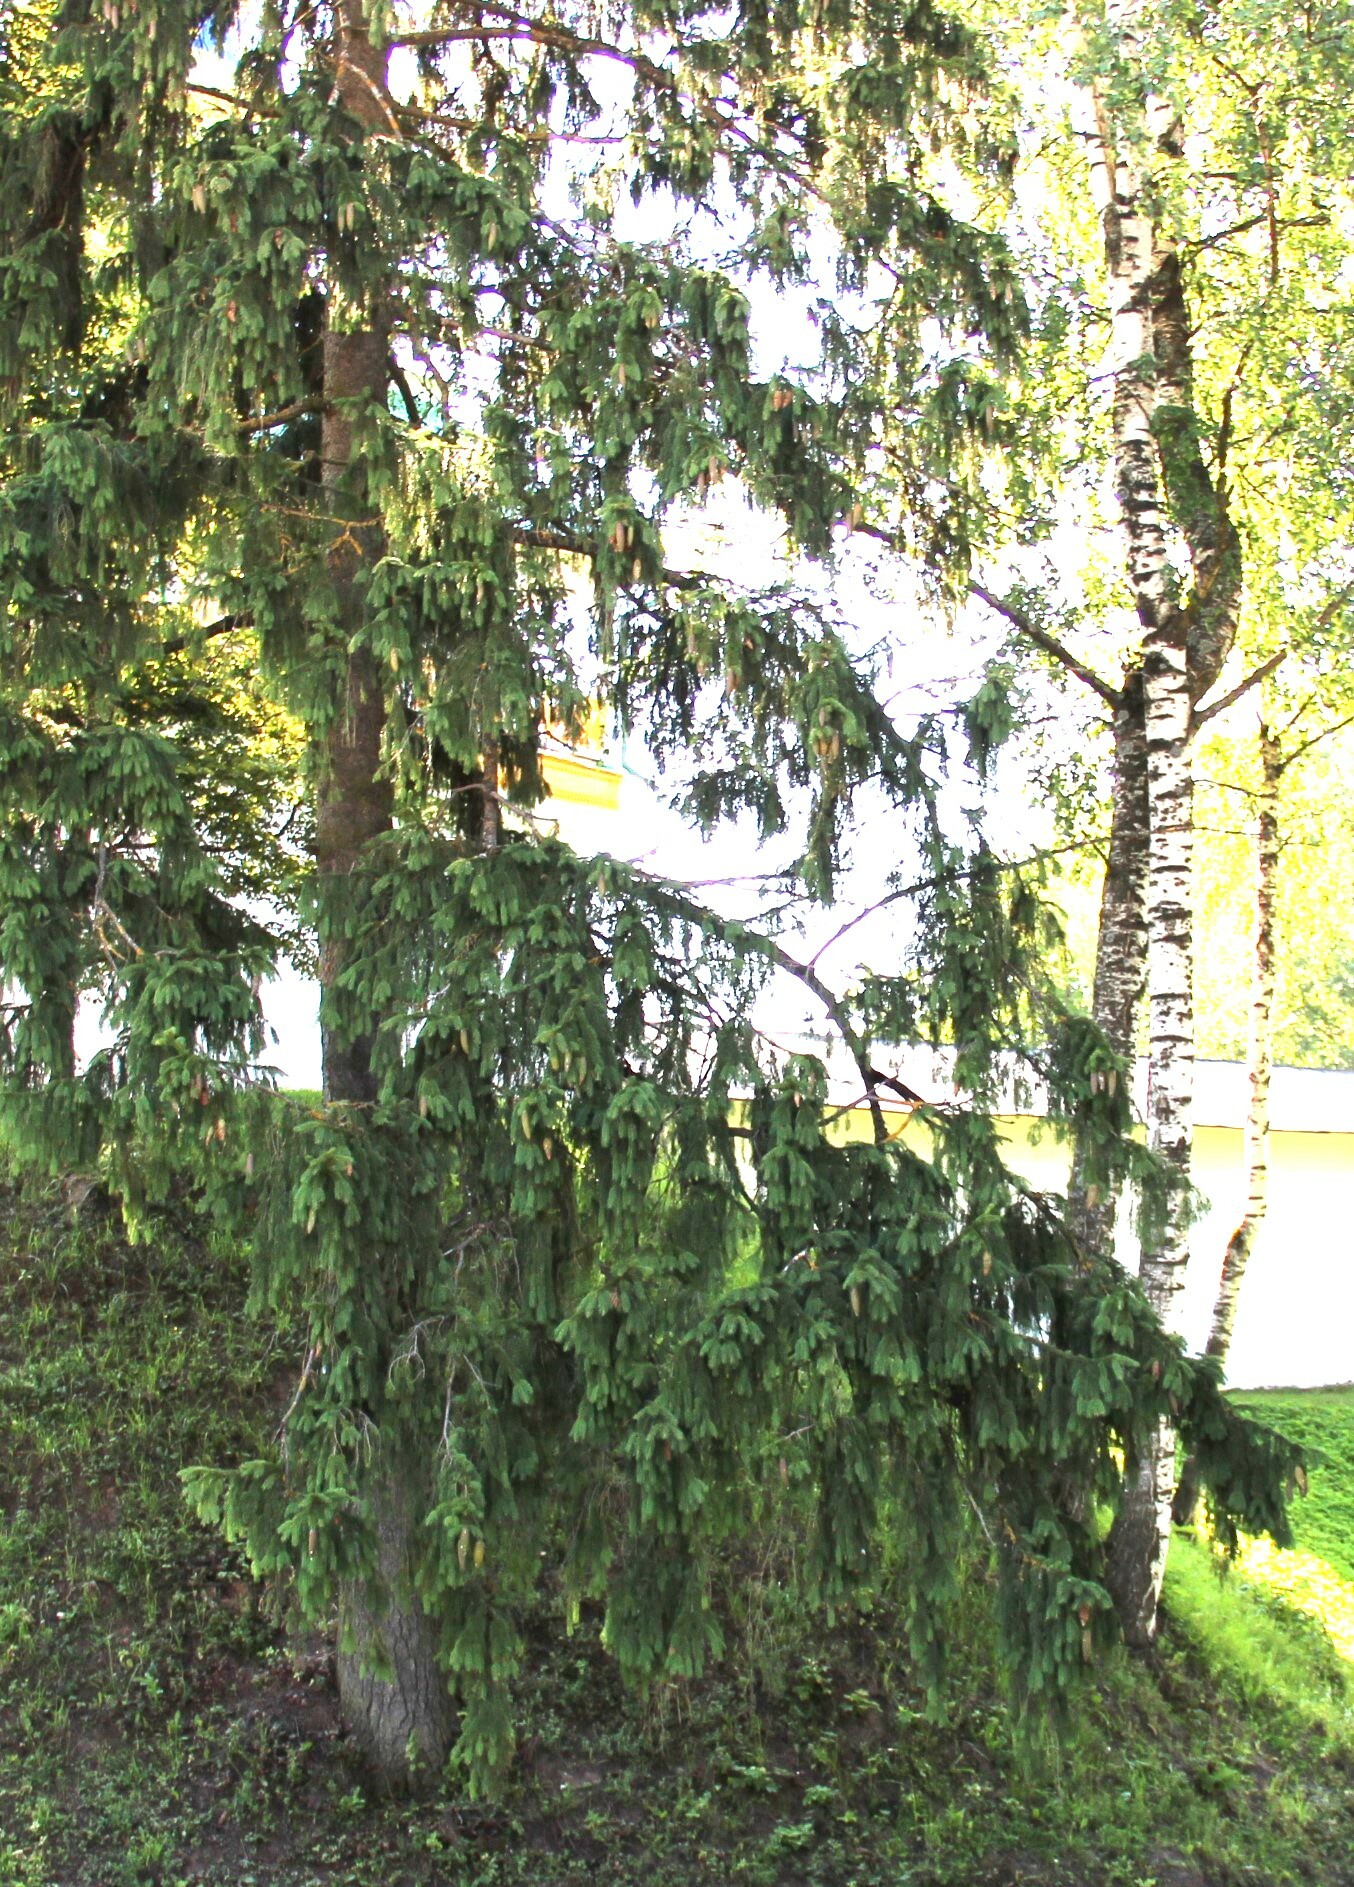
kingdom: Plantae
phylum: Tracheophyta
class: Pinopsida
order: Pinales
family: Pinaceae
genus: Picea
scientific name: Picea abies
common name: Norway spruce
